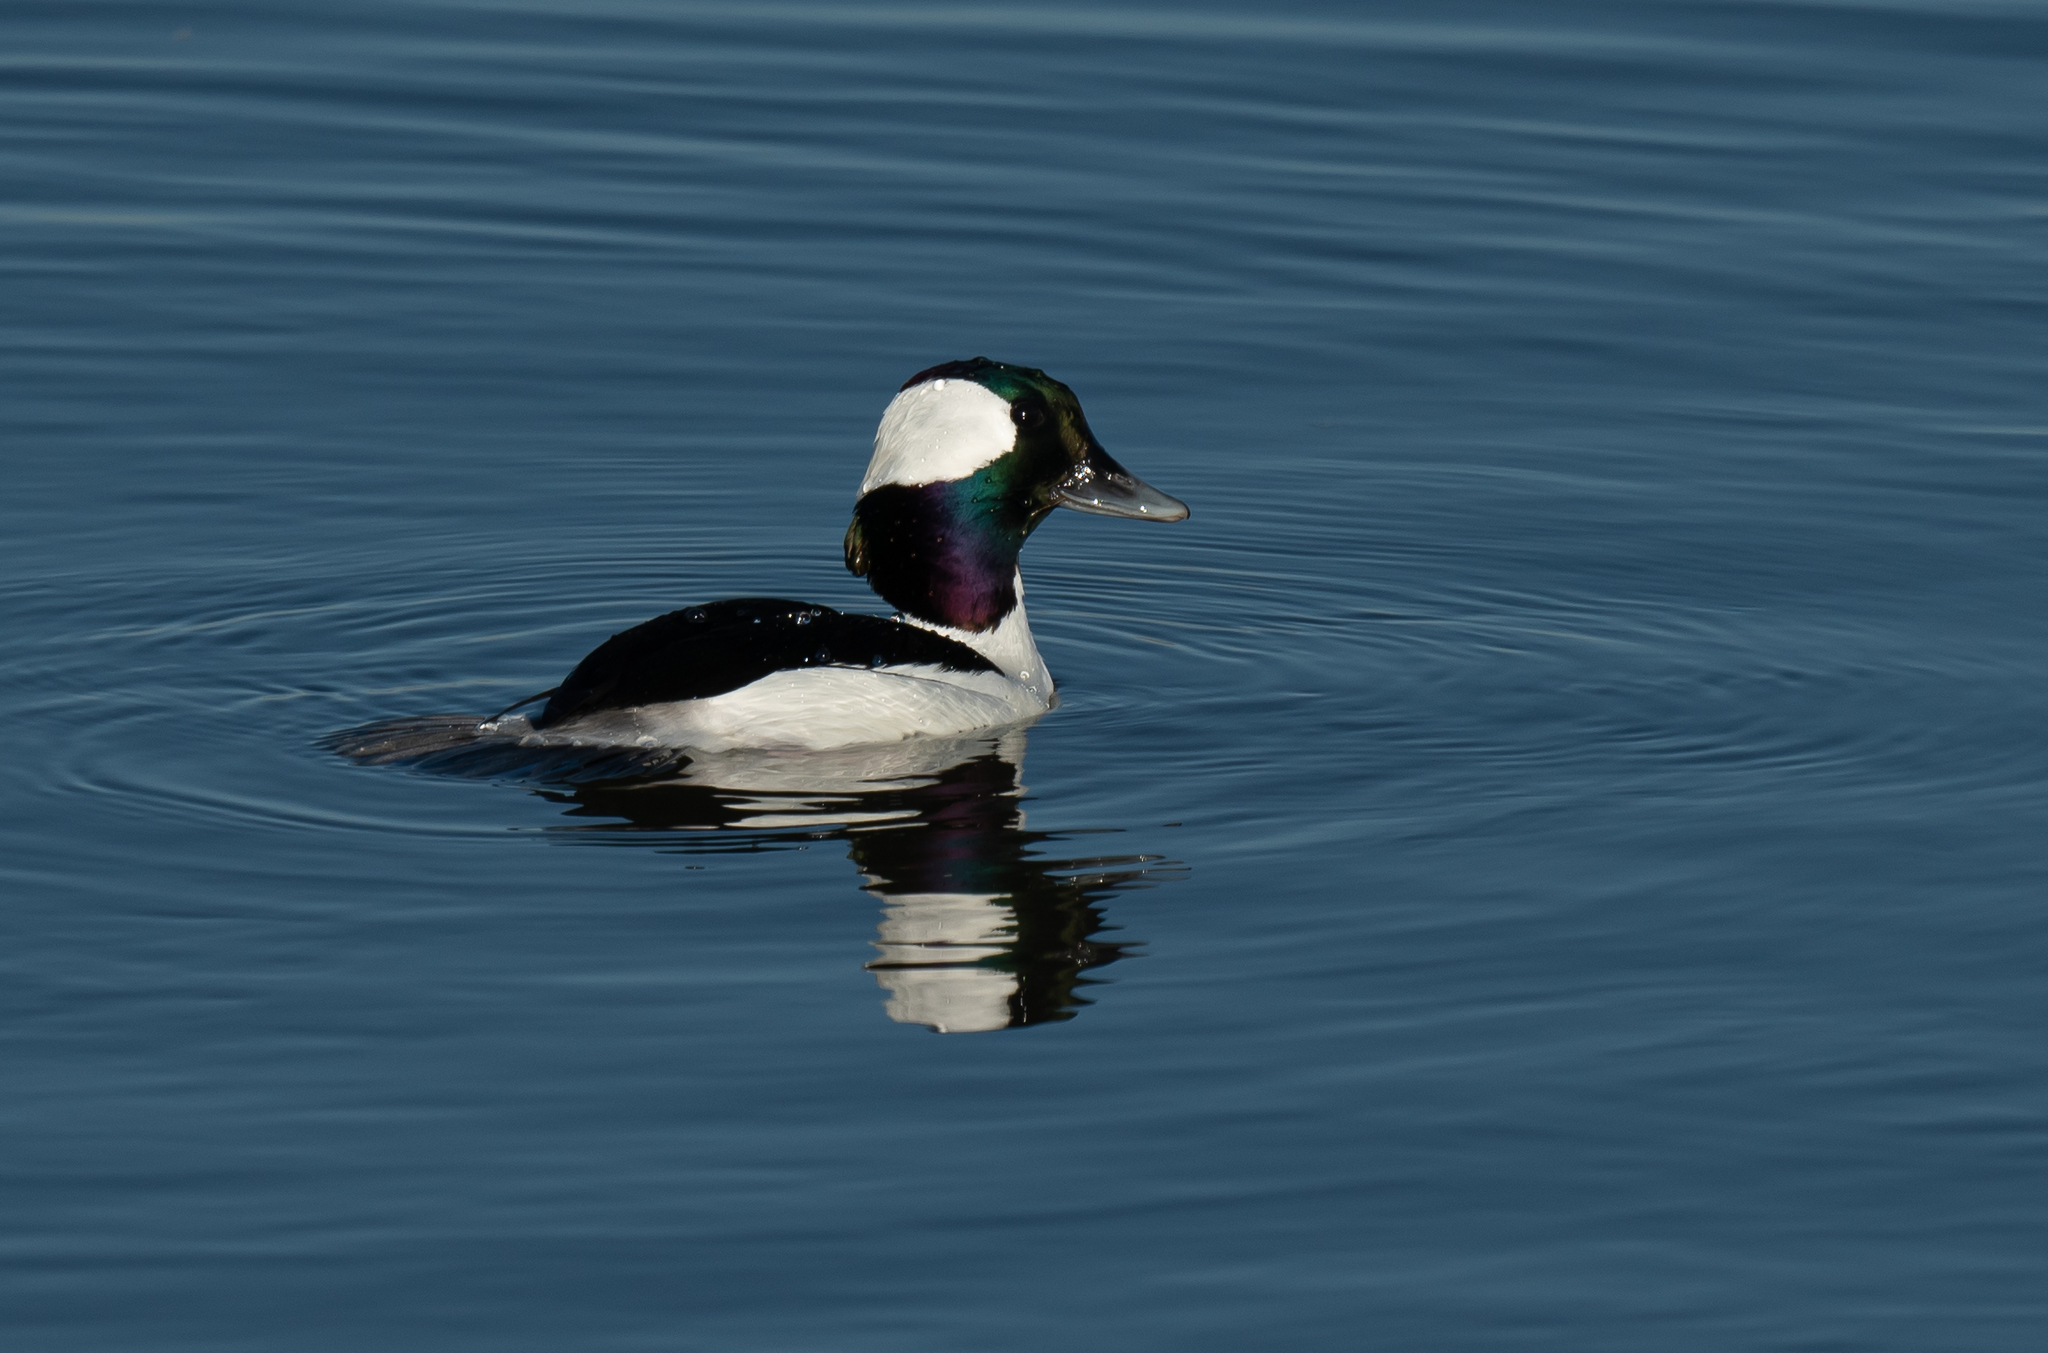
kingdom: Animalia
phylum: Chordata
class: Aves
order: Anseriformes
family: Anatidae
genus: Bucephala
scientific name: Bucephala albeola
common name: Bufflehead
